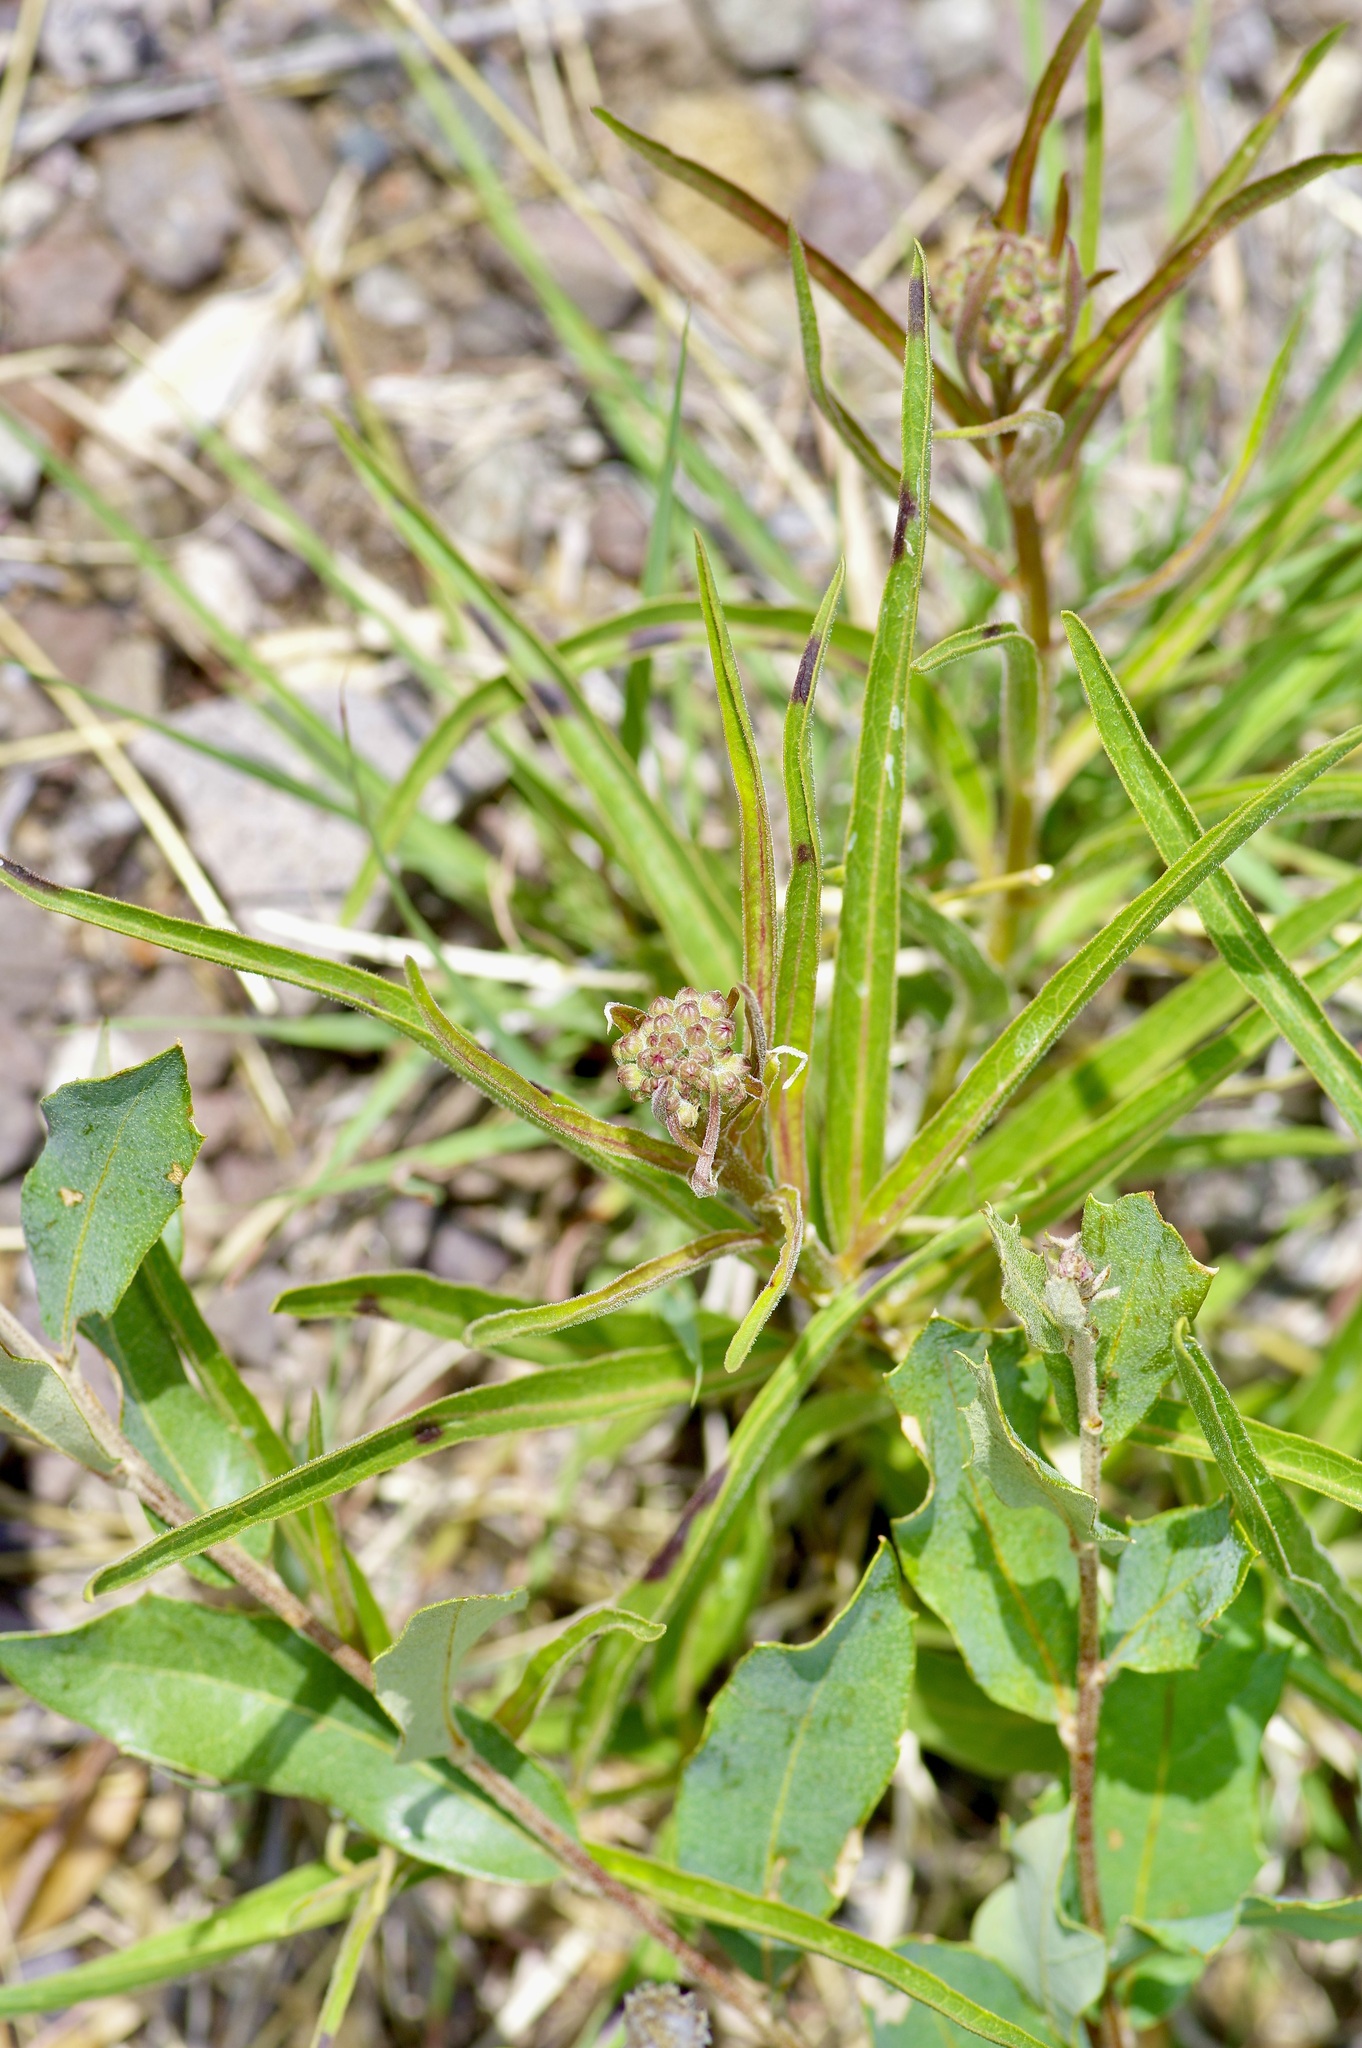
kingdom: Plantae
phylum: Tracheophyta
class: Magnoliopsida
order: Gentianales
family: Apocynaceae
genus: Asclepias
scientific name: Asclepias asperula
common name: Antelope horns
